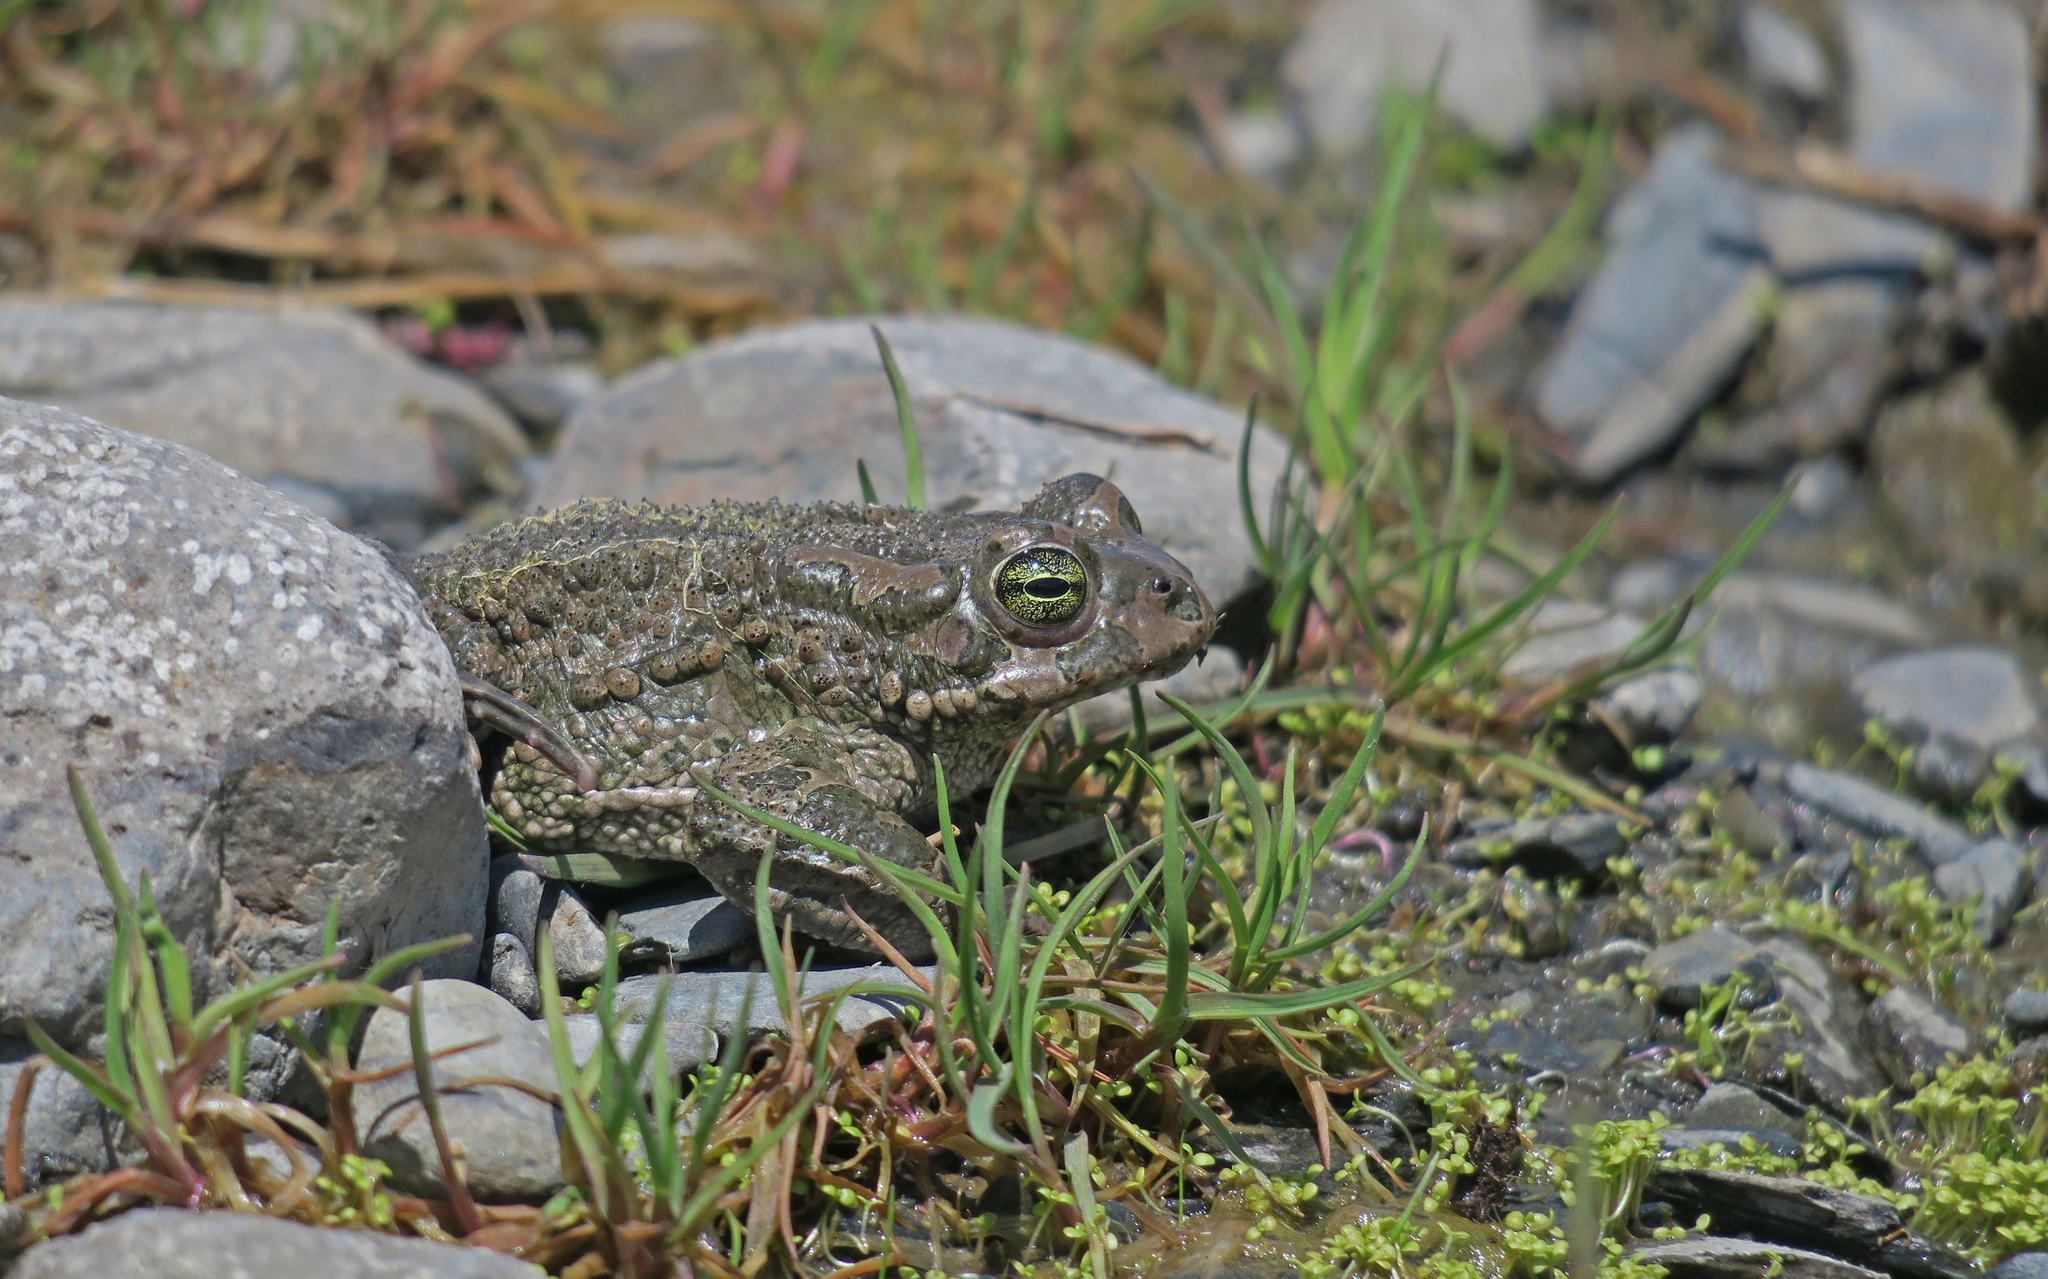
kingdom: Animalia
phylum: Chordata
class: Amphibia
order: Anura
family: Bufonidae
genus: Bufotes
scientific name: Bufotes viridis
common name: European green toad
